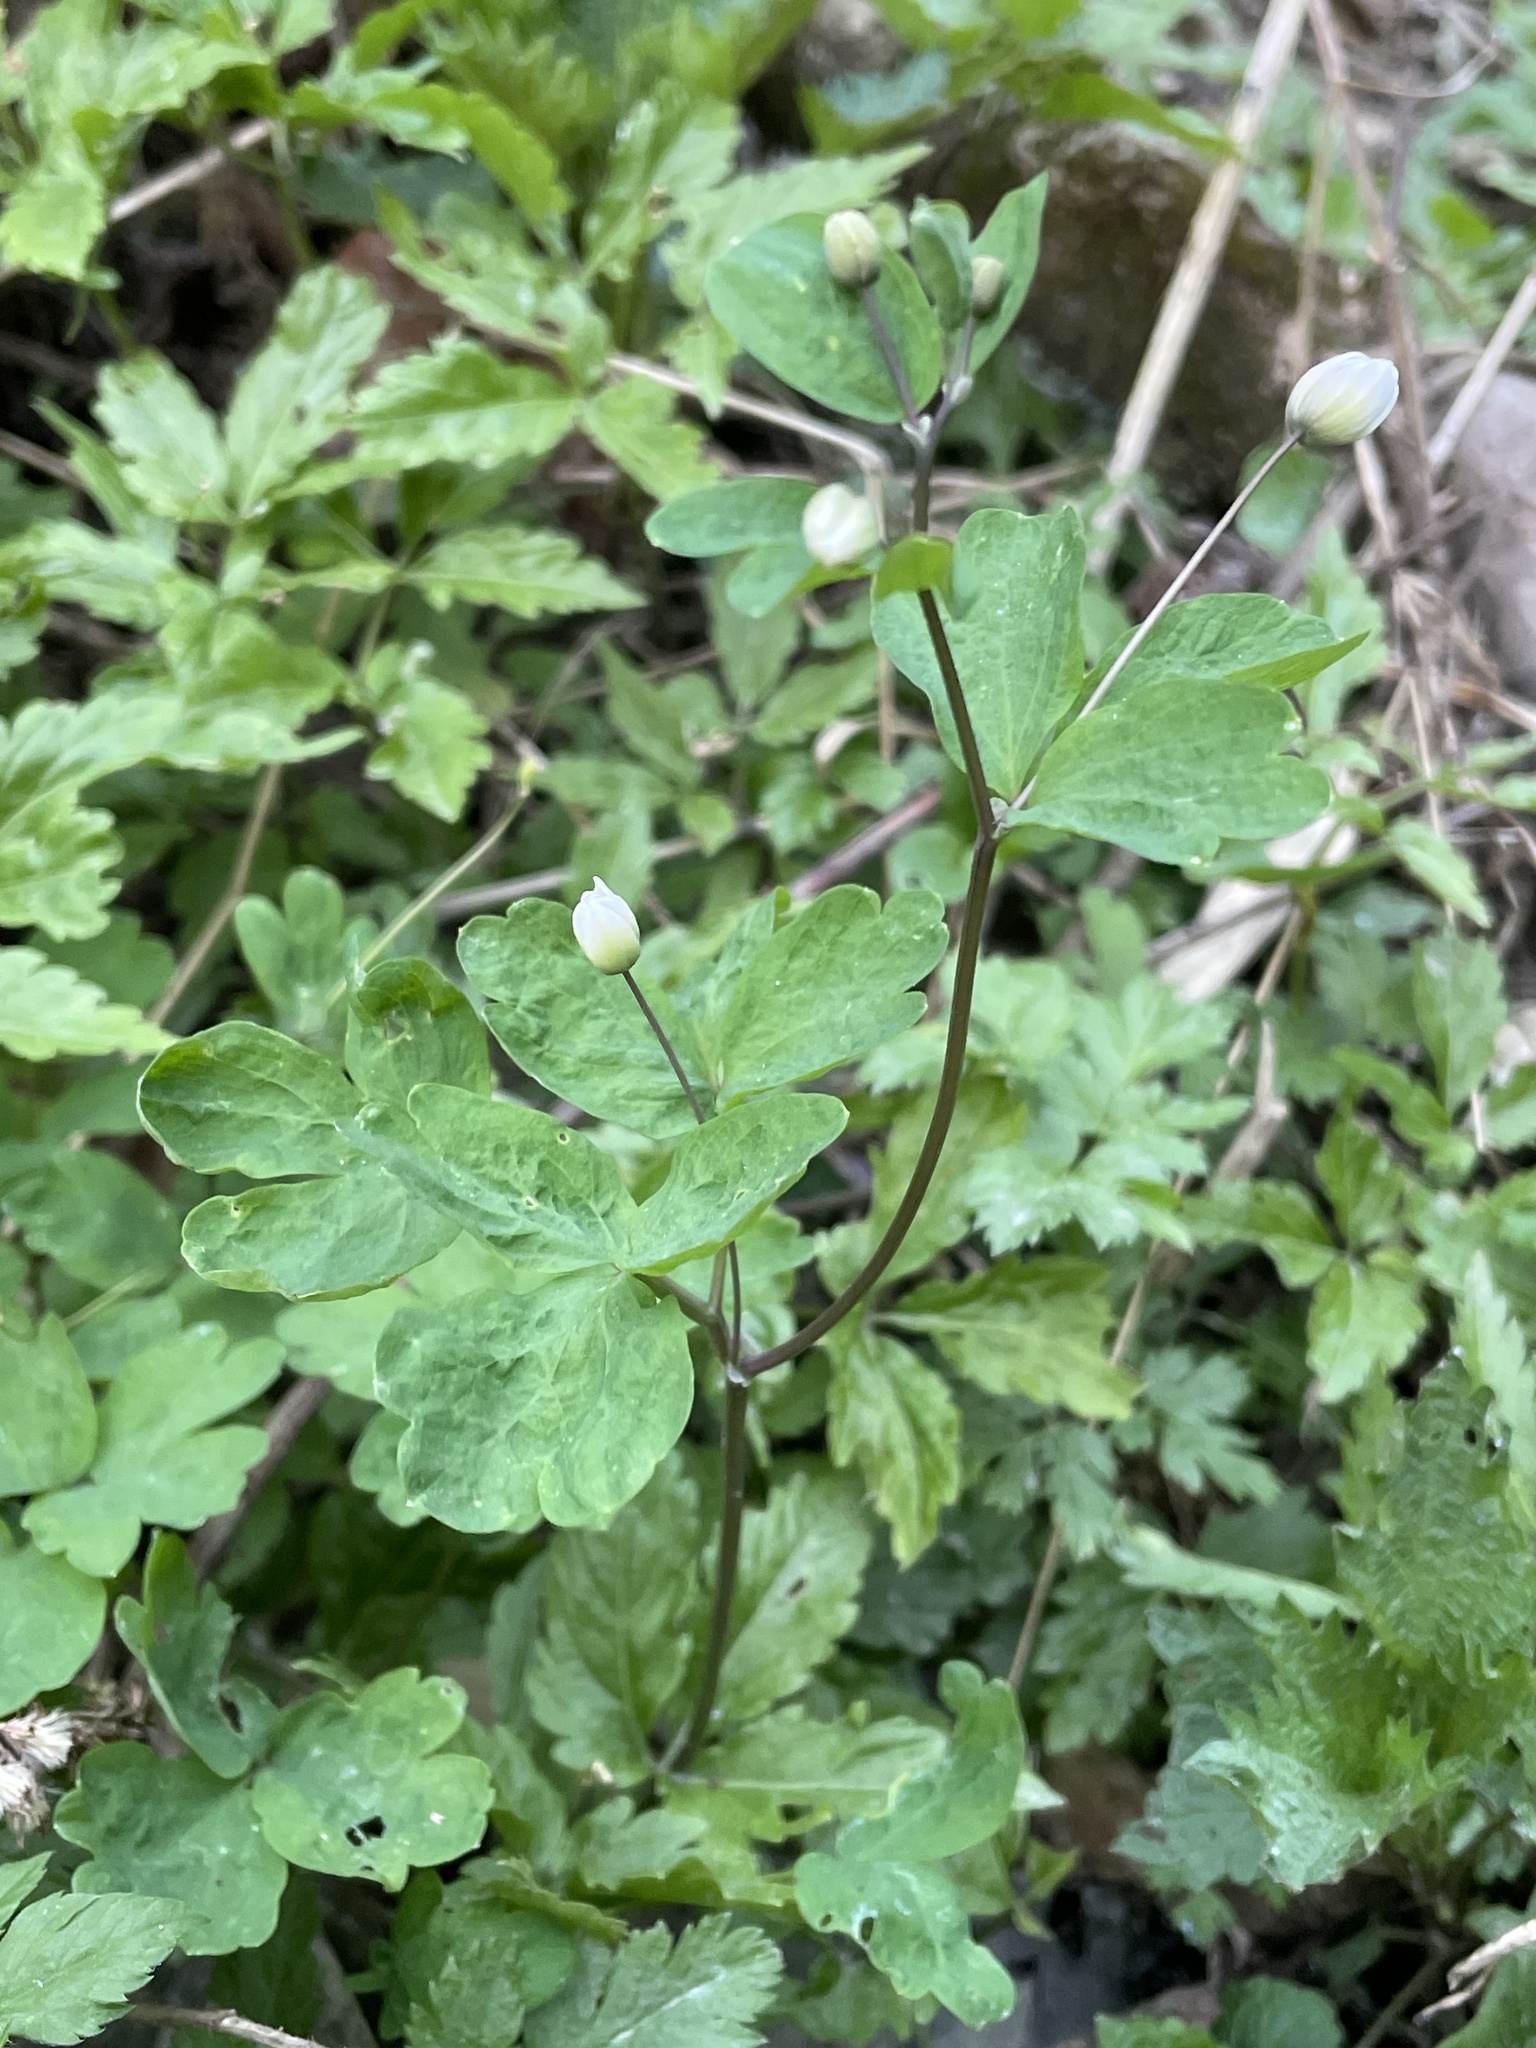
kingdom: Plantae
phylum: Tracheophyta
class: Magnoliopsida
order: Ranunculales
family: Ranunculaceae
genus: Isopyrum
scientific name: Isopyrum thalictroides
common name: Isopyrum
